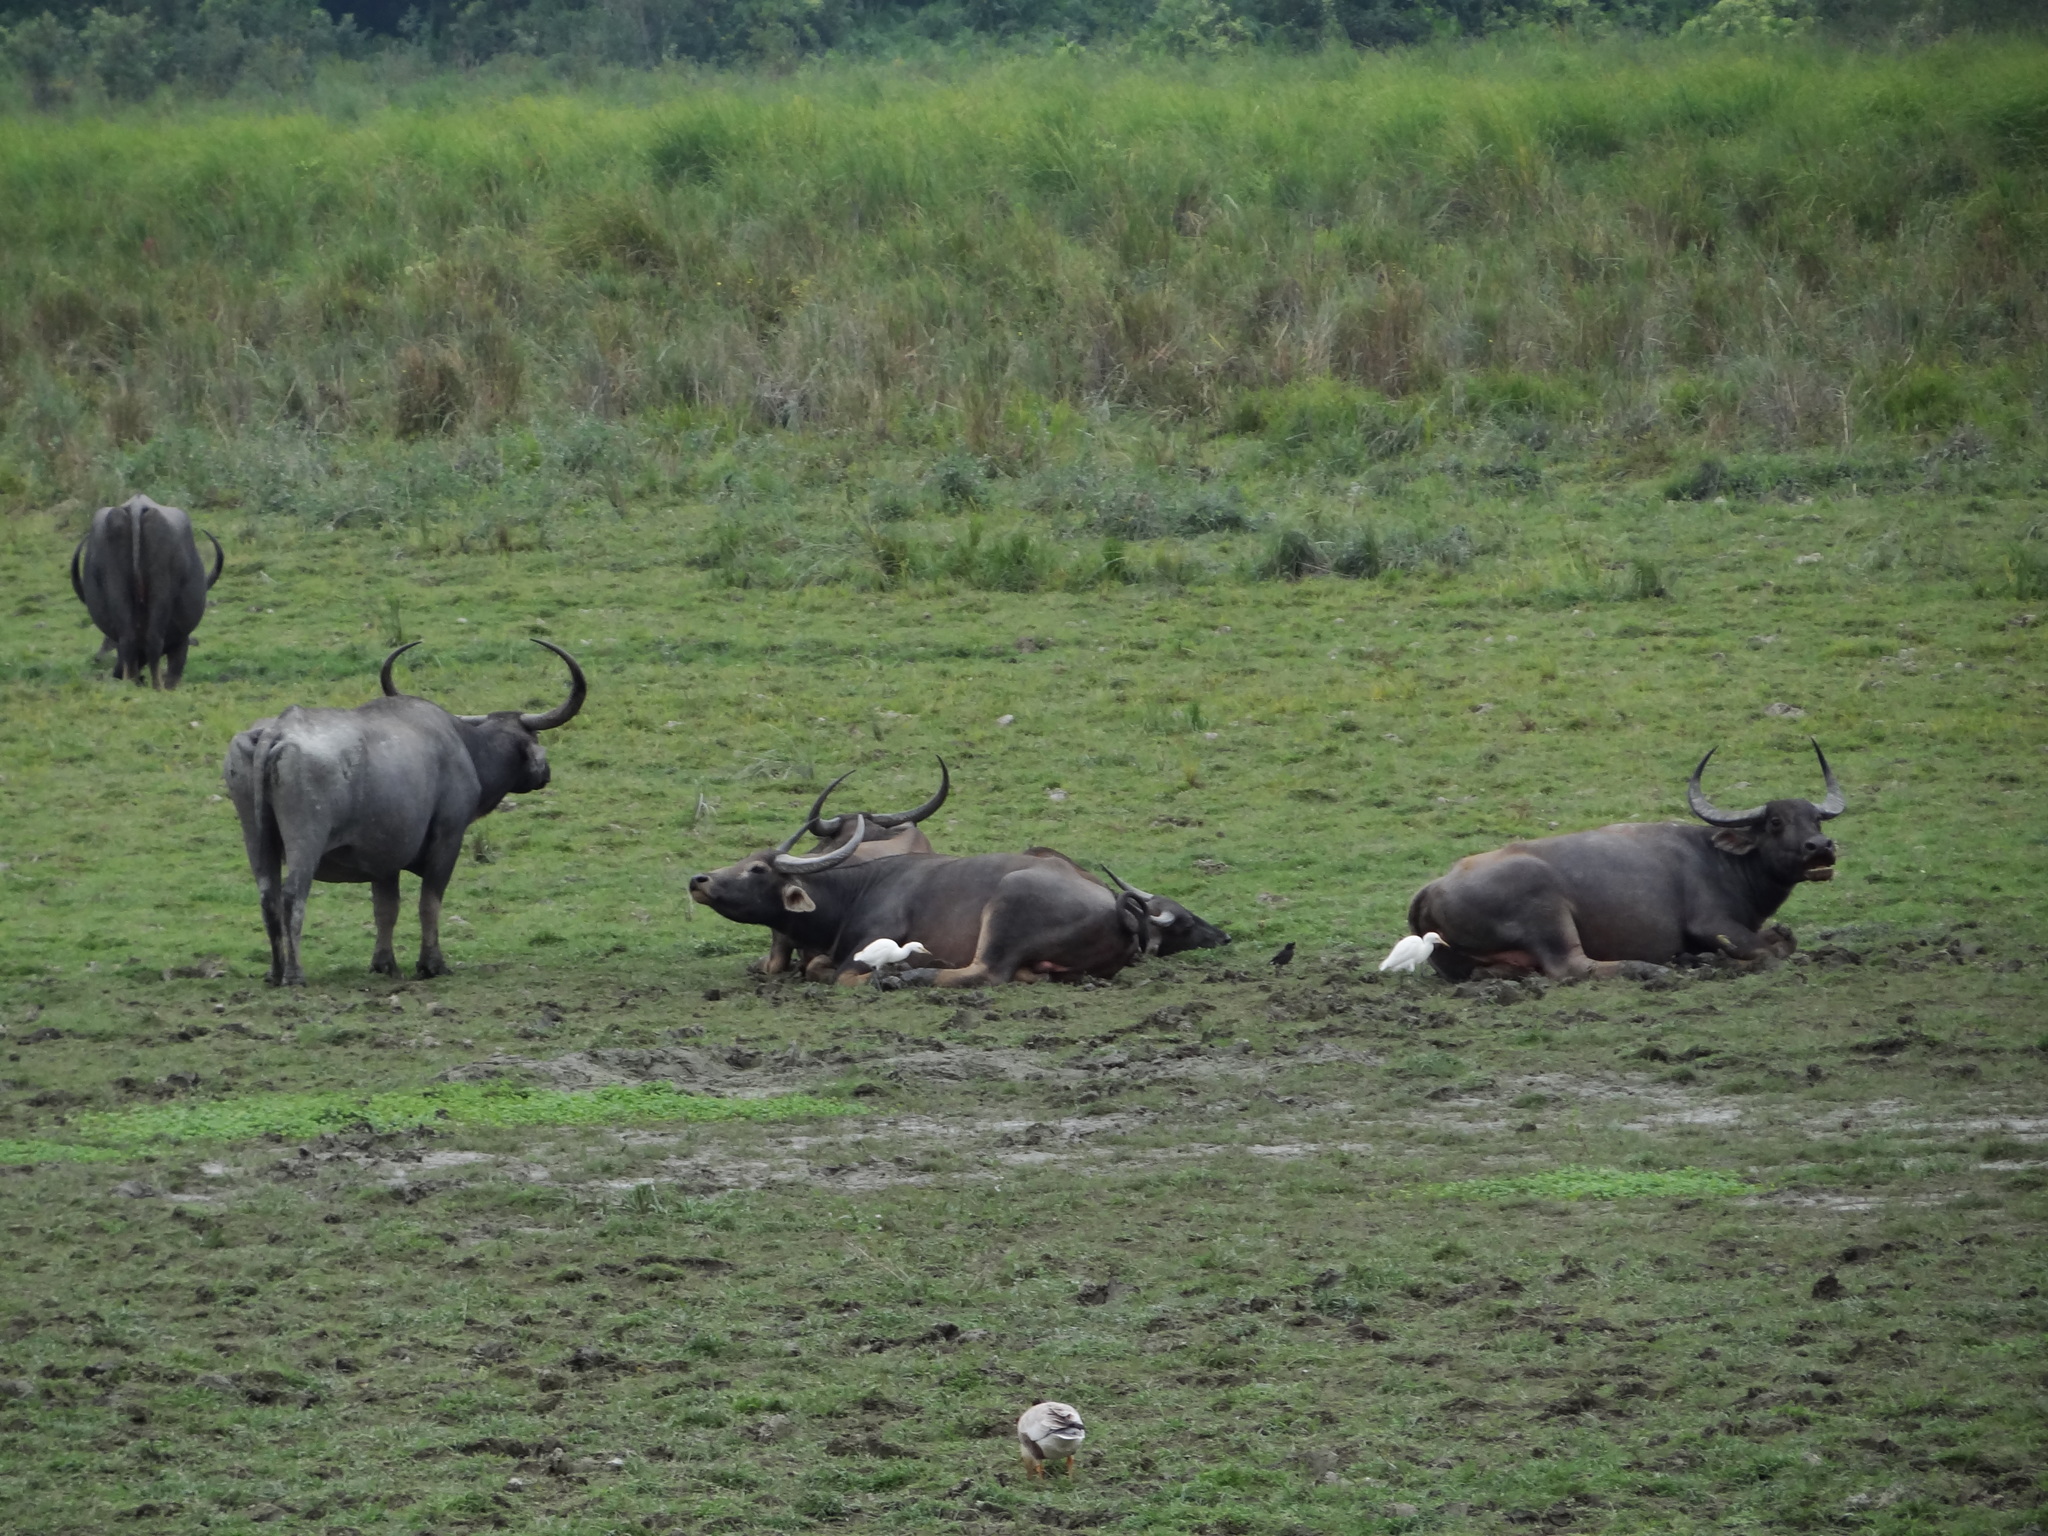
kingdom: Animalia
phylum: Chordata
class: Mammalia
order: Artiodactyla
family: Bovidae
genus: Bubalus
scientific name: Bubalus bubalis
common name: Water buffalo
